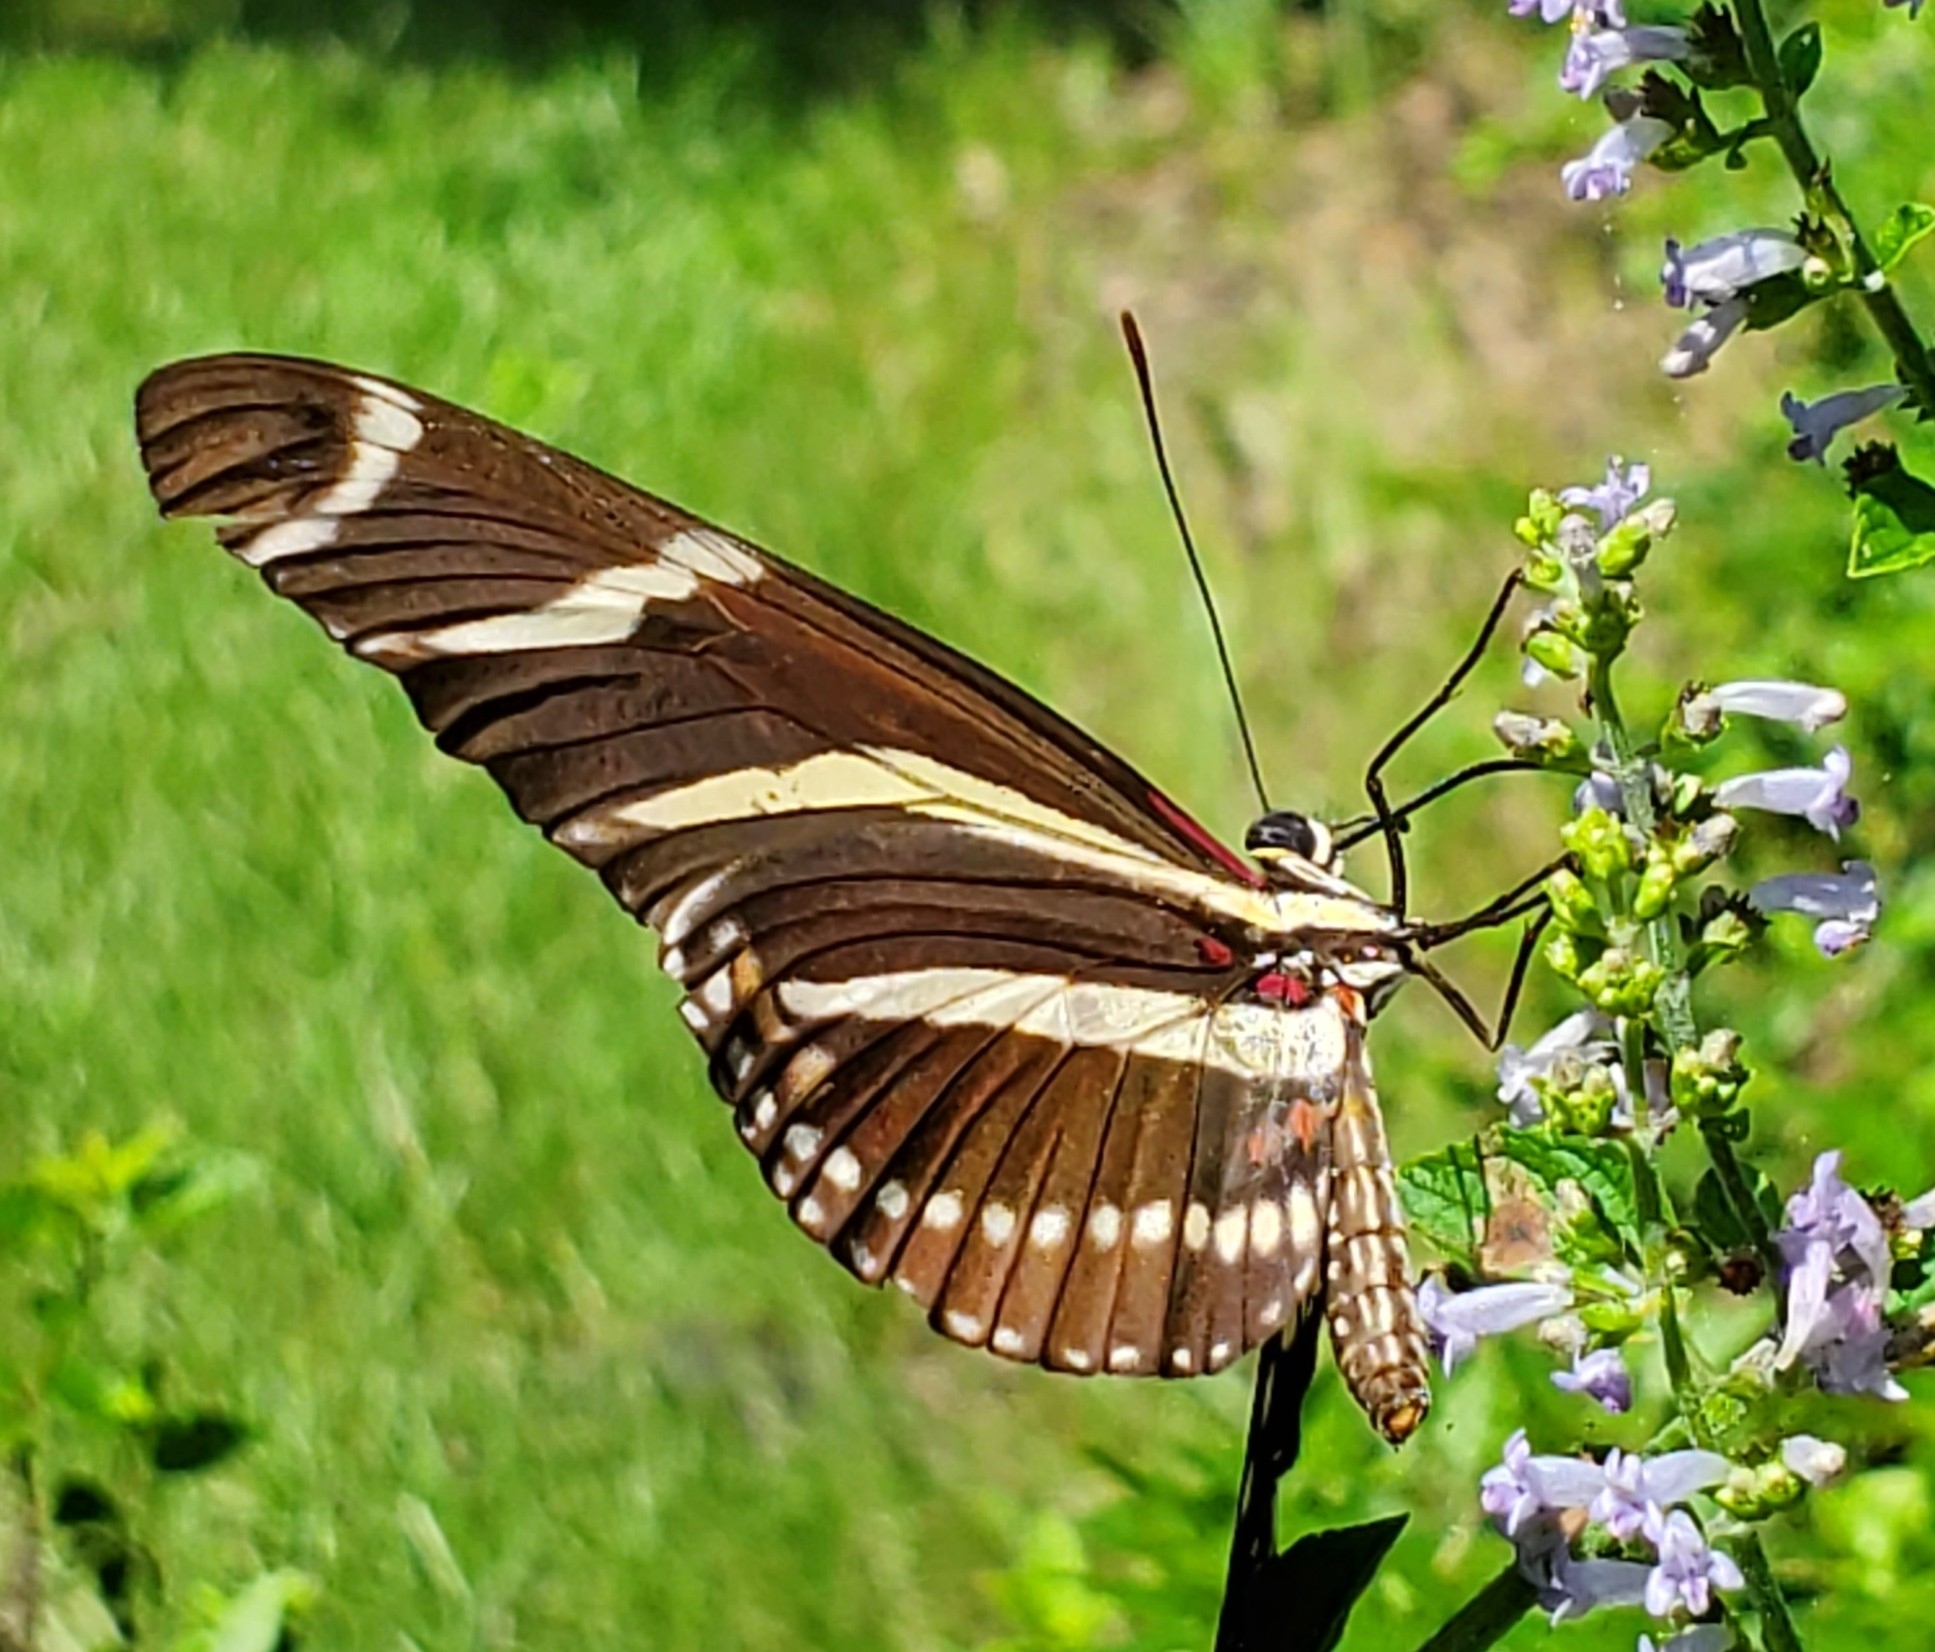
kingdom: Animalia
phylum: Arthropoda
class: Insecta
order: Lepidoptera
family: Nymphalidae
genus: Heliconius
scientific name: Heliconius charithonia
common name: Zebra long wing
